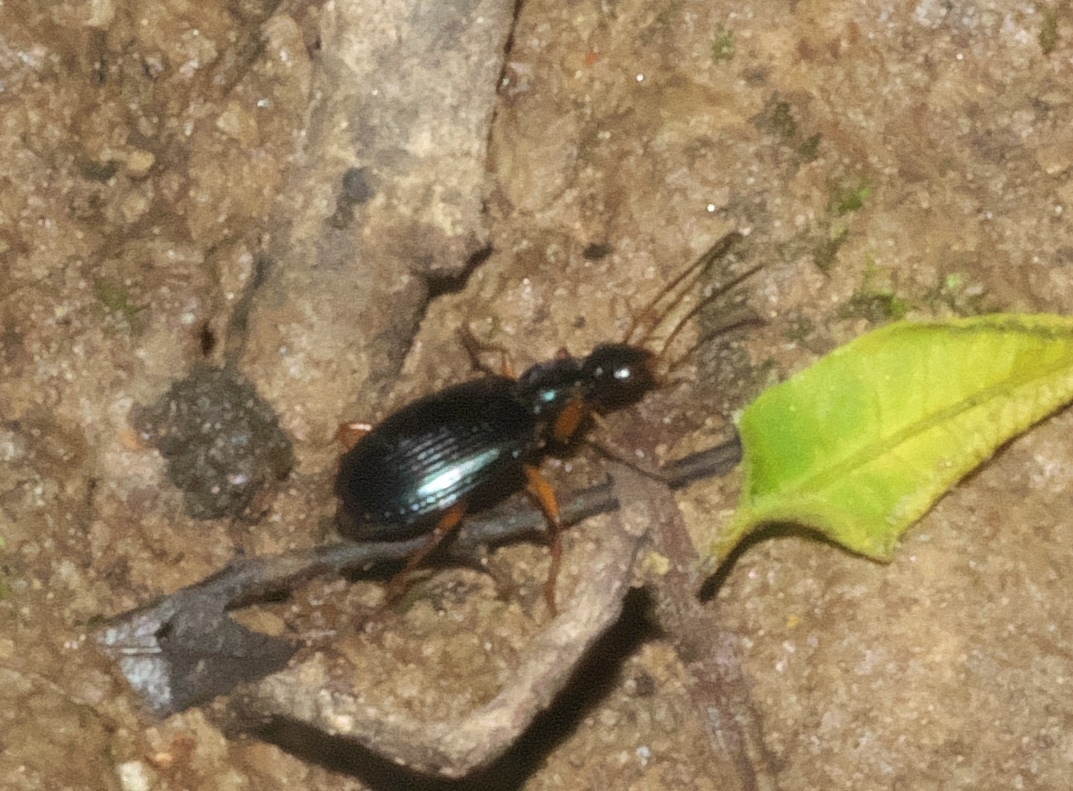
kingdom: Animalia
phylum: Arthropoda
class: Insecta
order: Coleoptera
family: Carabidae
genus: Agonum
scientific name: Agonum extensicolle
